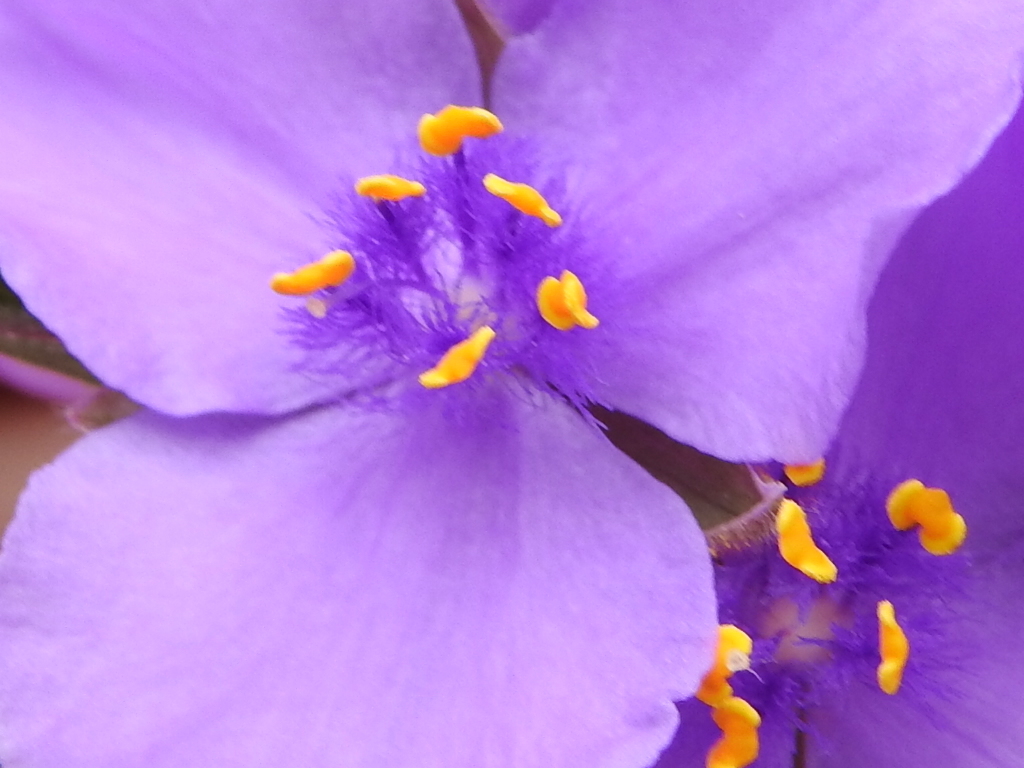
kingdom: Plantae
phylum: Tracheophyta
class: Liliopsida
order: Commelinales
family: Commelinaceae
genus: Tradescantia
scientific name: Tradescantia occidentalis
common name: Prairie spiderwort
